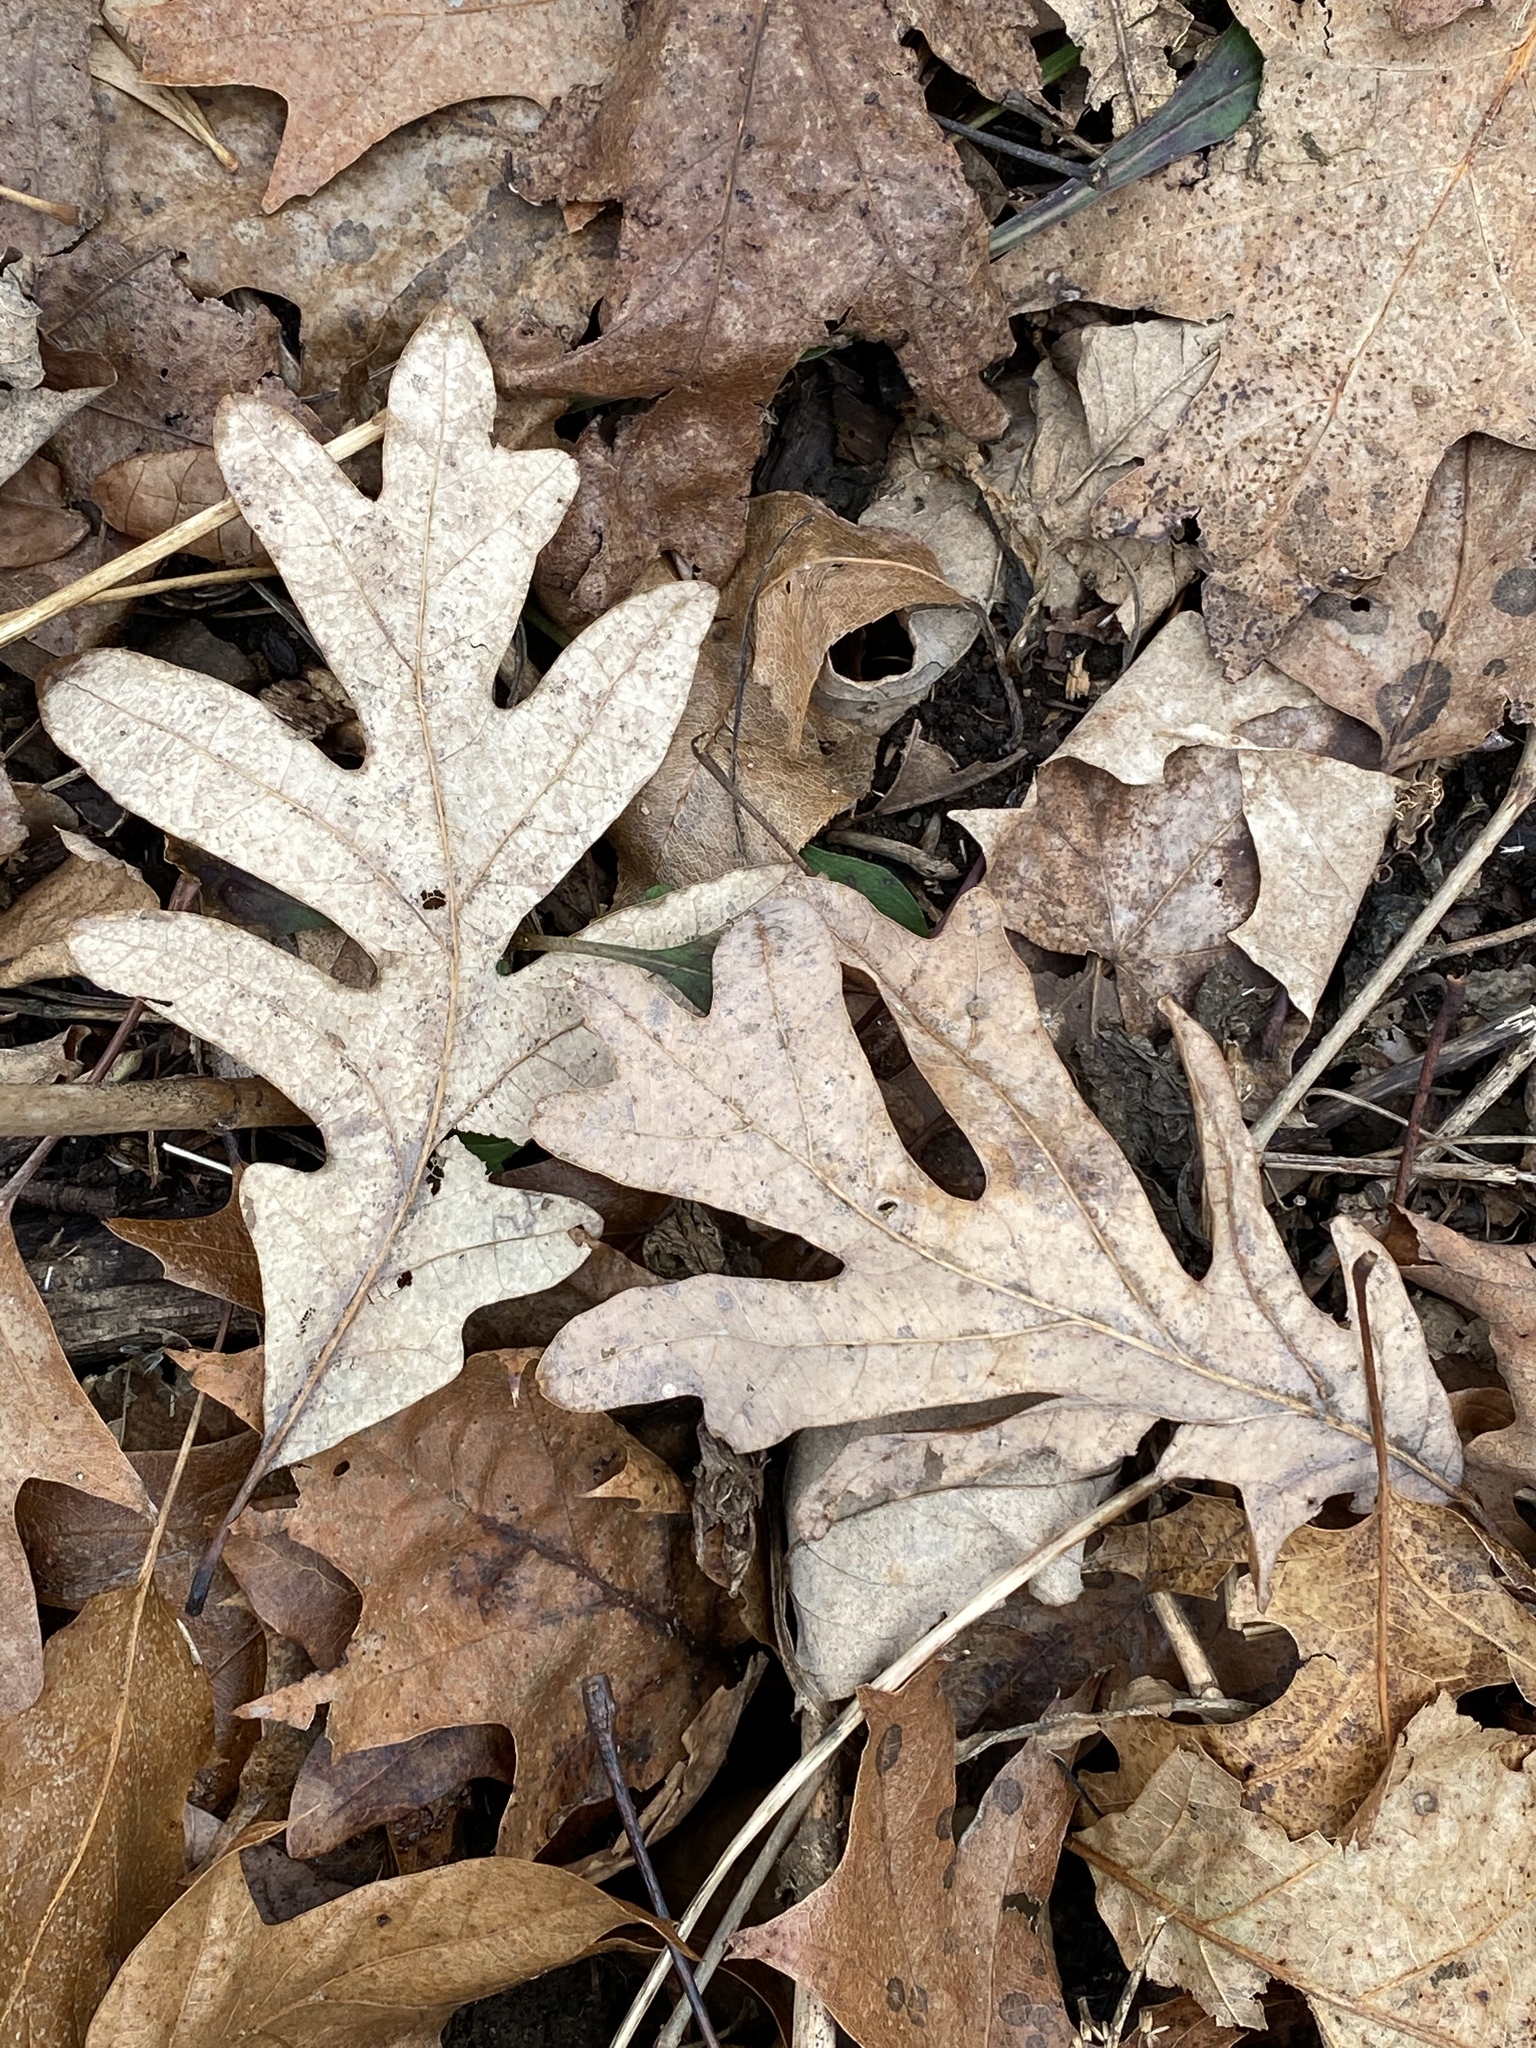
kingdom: Plantae
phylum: Tracheophyta
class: Magnoliopsida
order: Fagales
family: Fagaceae
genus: Quercus
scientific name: Quercus alba
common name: White oak
